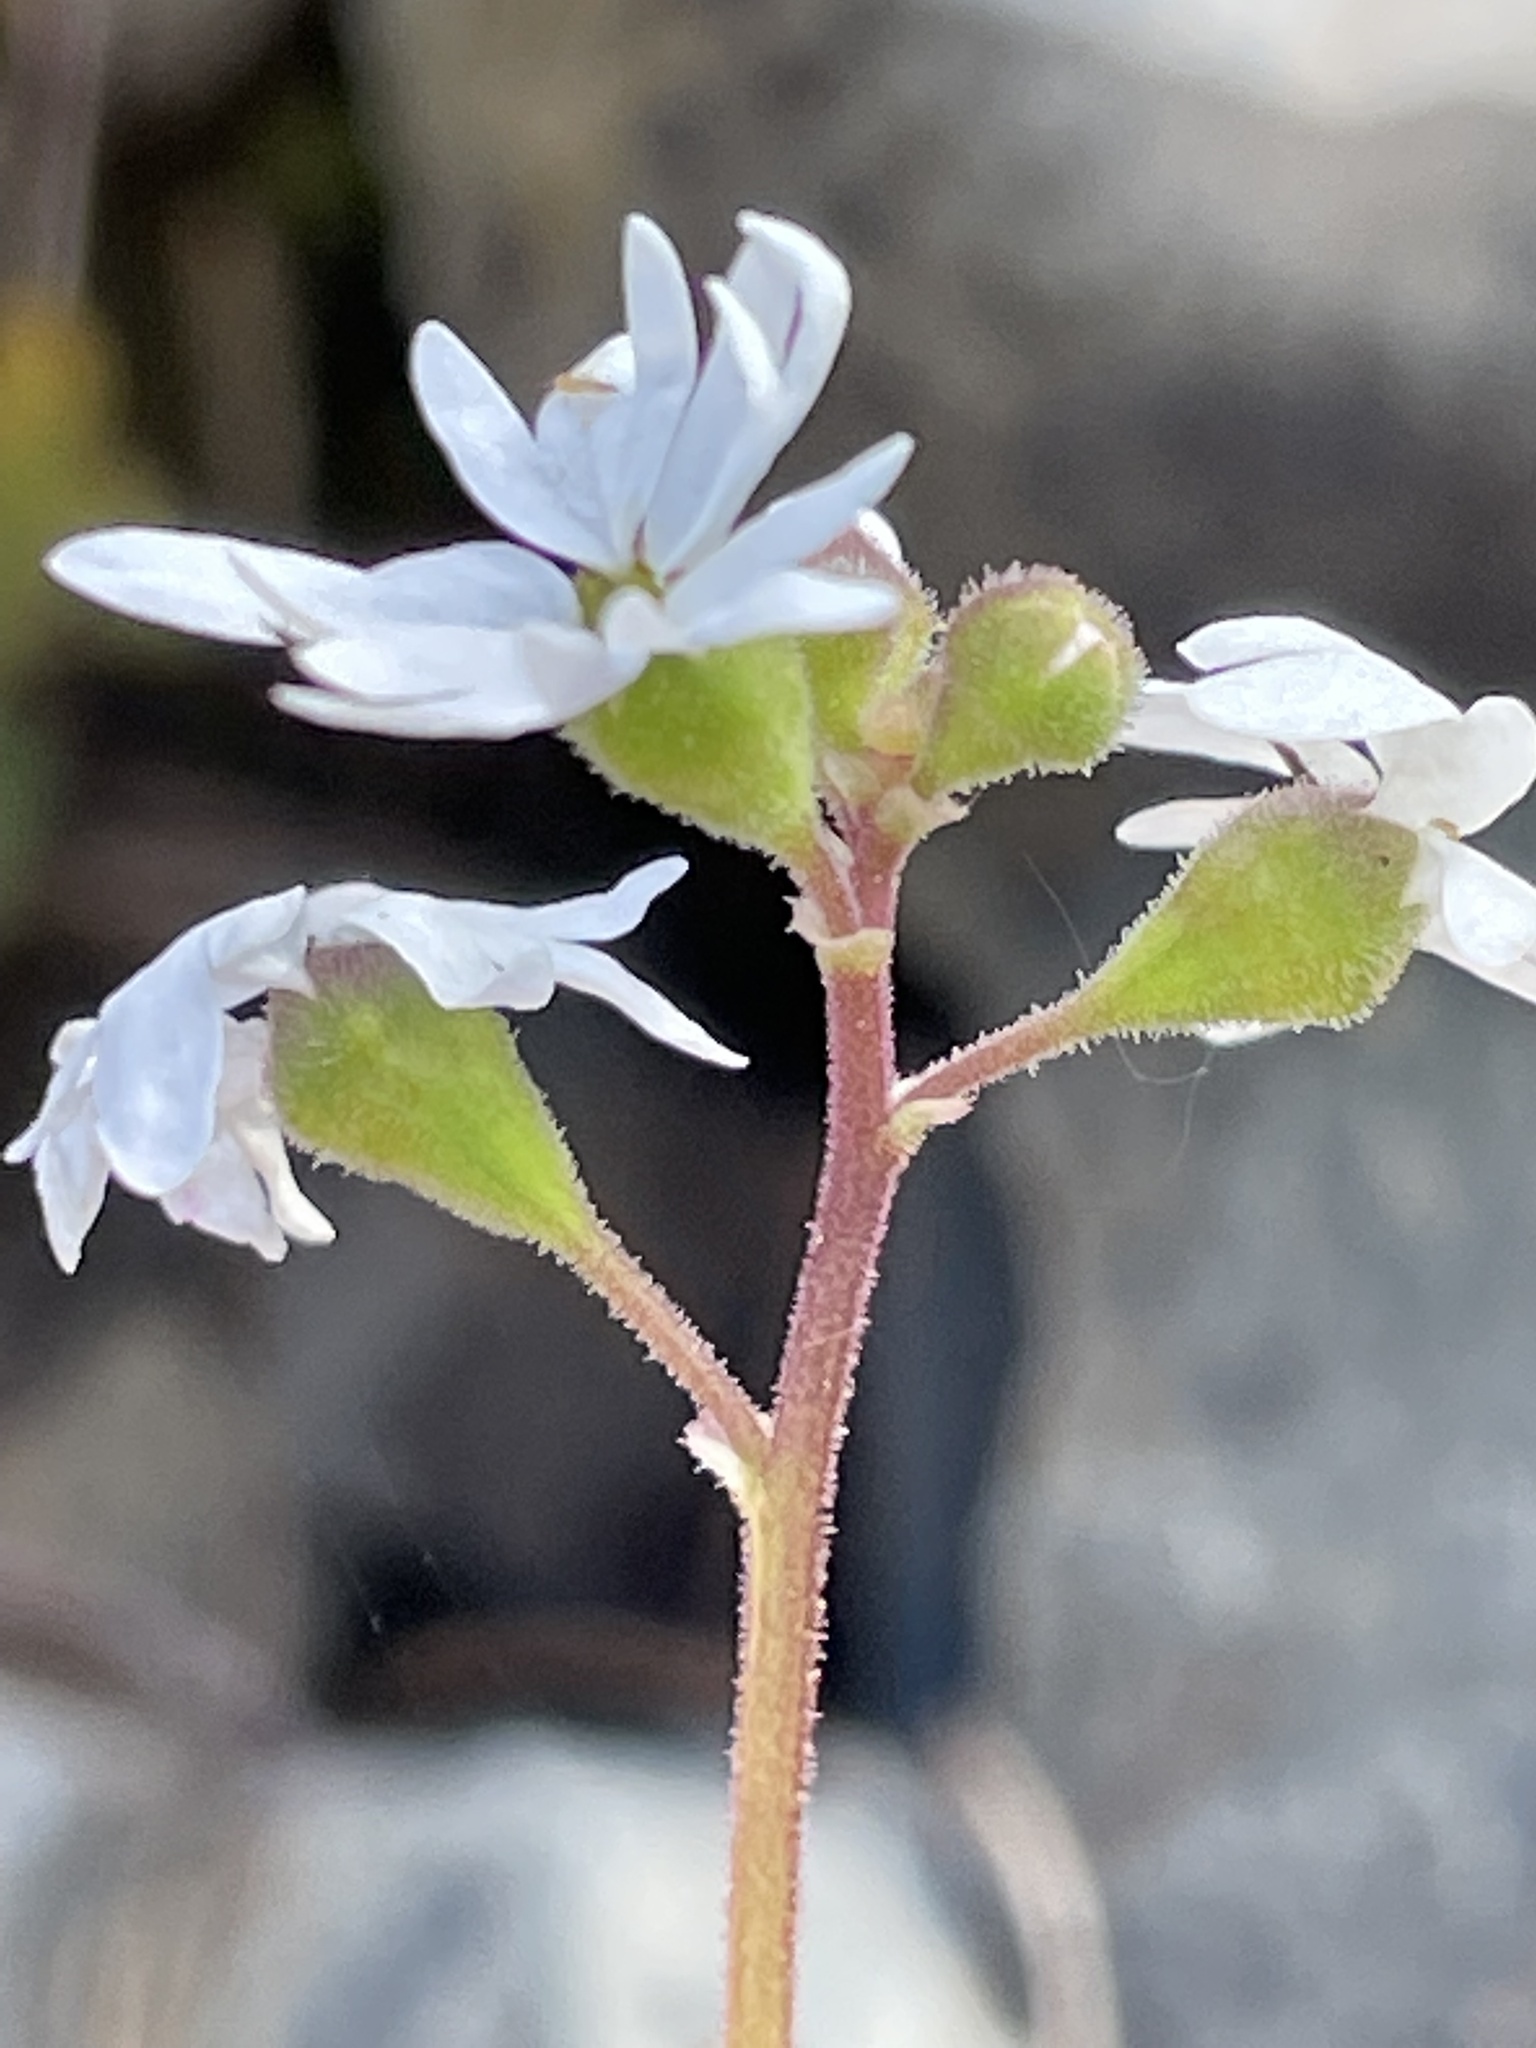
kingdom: Plantae
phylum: Tracheophyta
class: Magnoliopsida
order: Saxifragales
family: Saxifragaceae
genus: Lithophragma
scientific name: Lithophragma parviflorum
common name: Small-flowered fringe-cup
